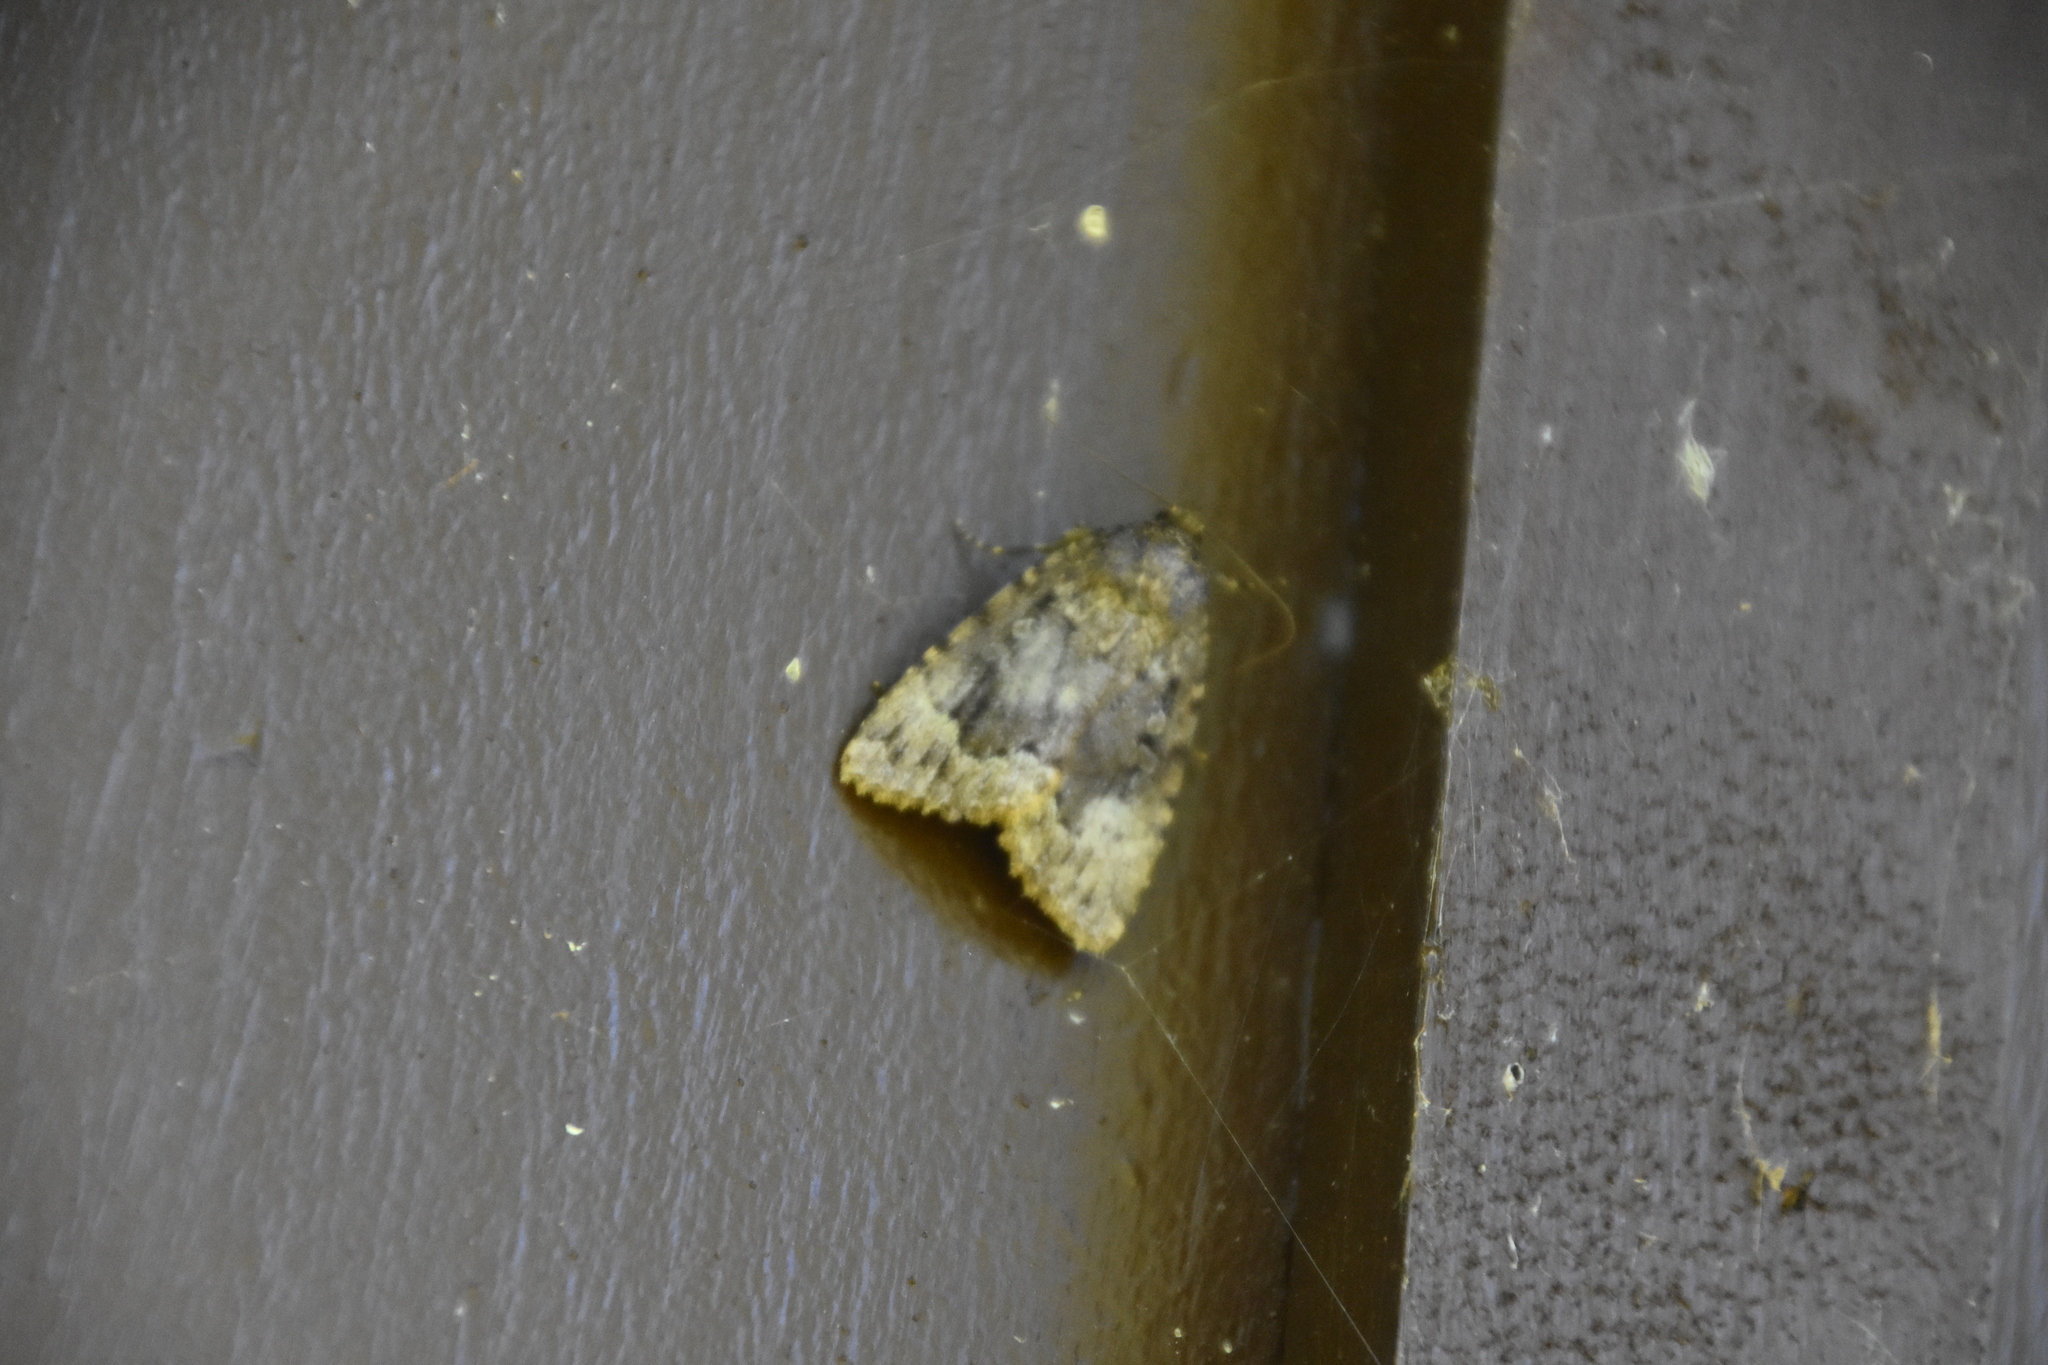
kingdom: Animalia
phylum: Arthropoda
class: Insecta
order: Lepidoptera
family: Noctuidae
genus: Amphipyra
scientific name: Amphipyra pyramidoides
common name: American copper underwing
